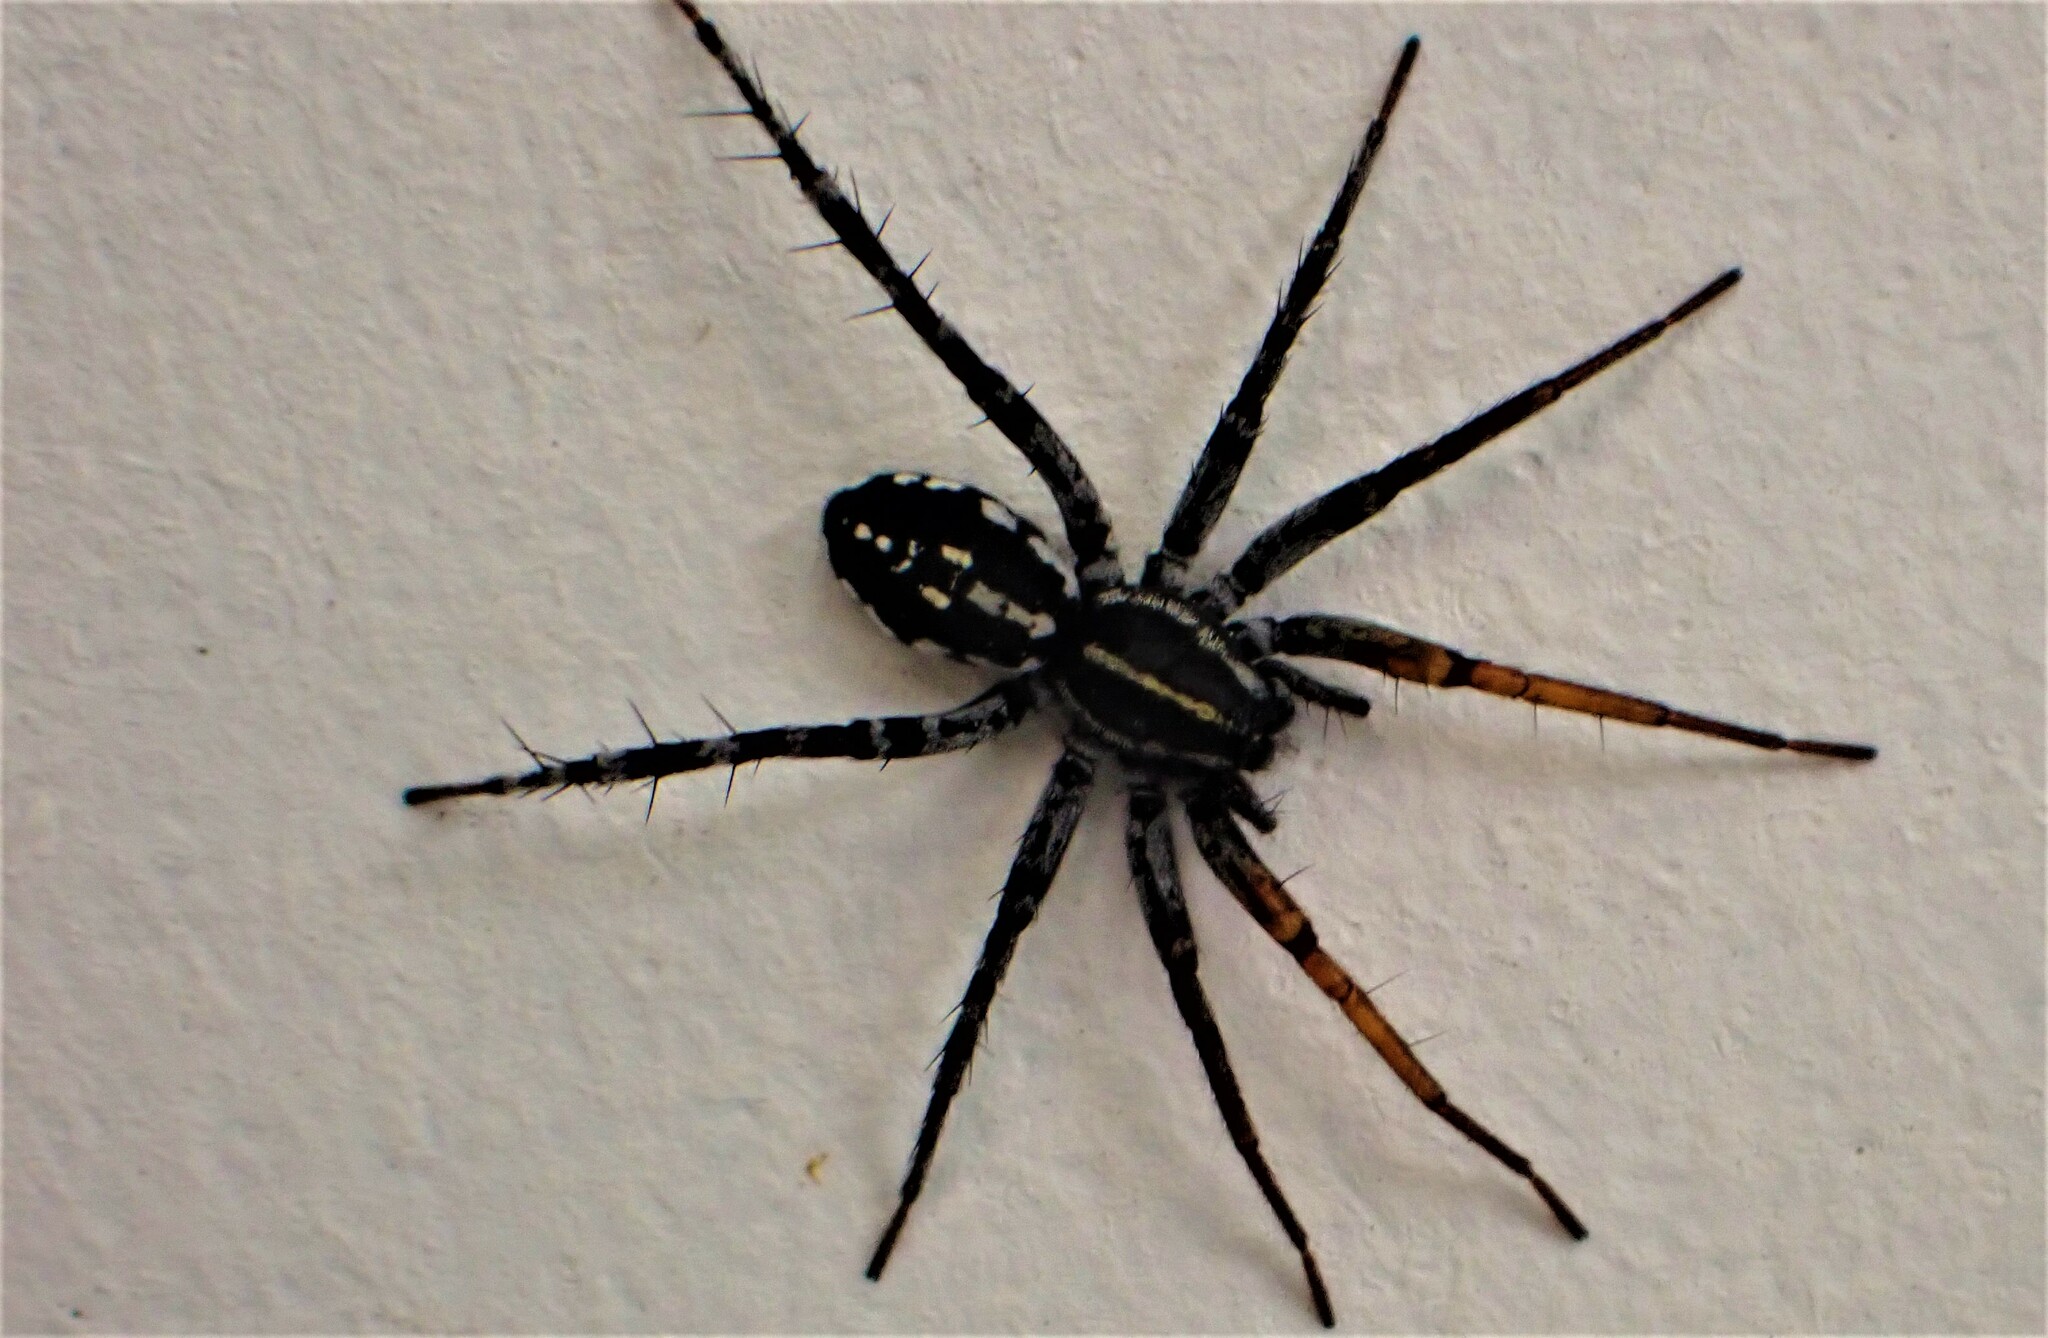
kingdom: Animalia
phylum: Arthropoda
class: Arachnida
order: Araneae
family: Corinnidae
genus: Nyssus
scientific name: Nyssus coloripes
